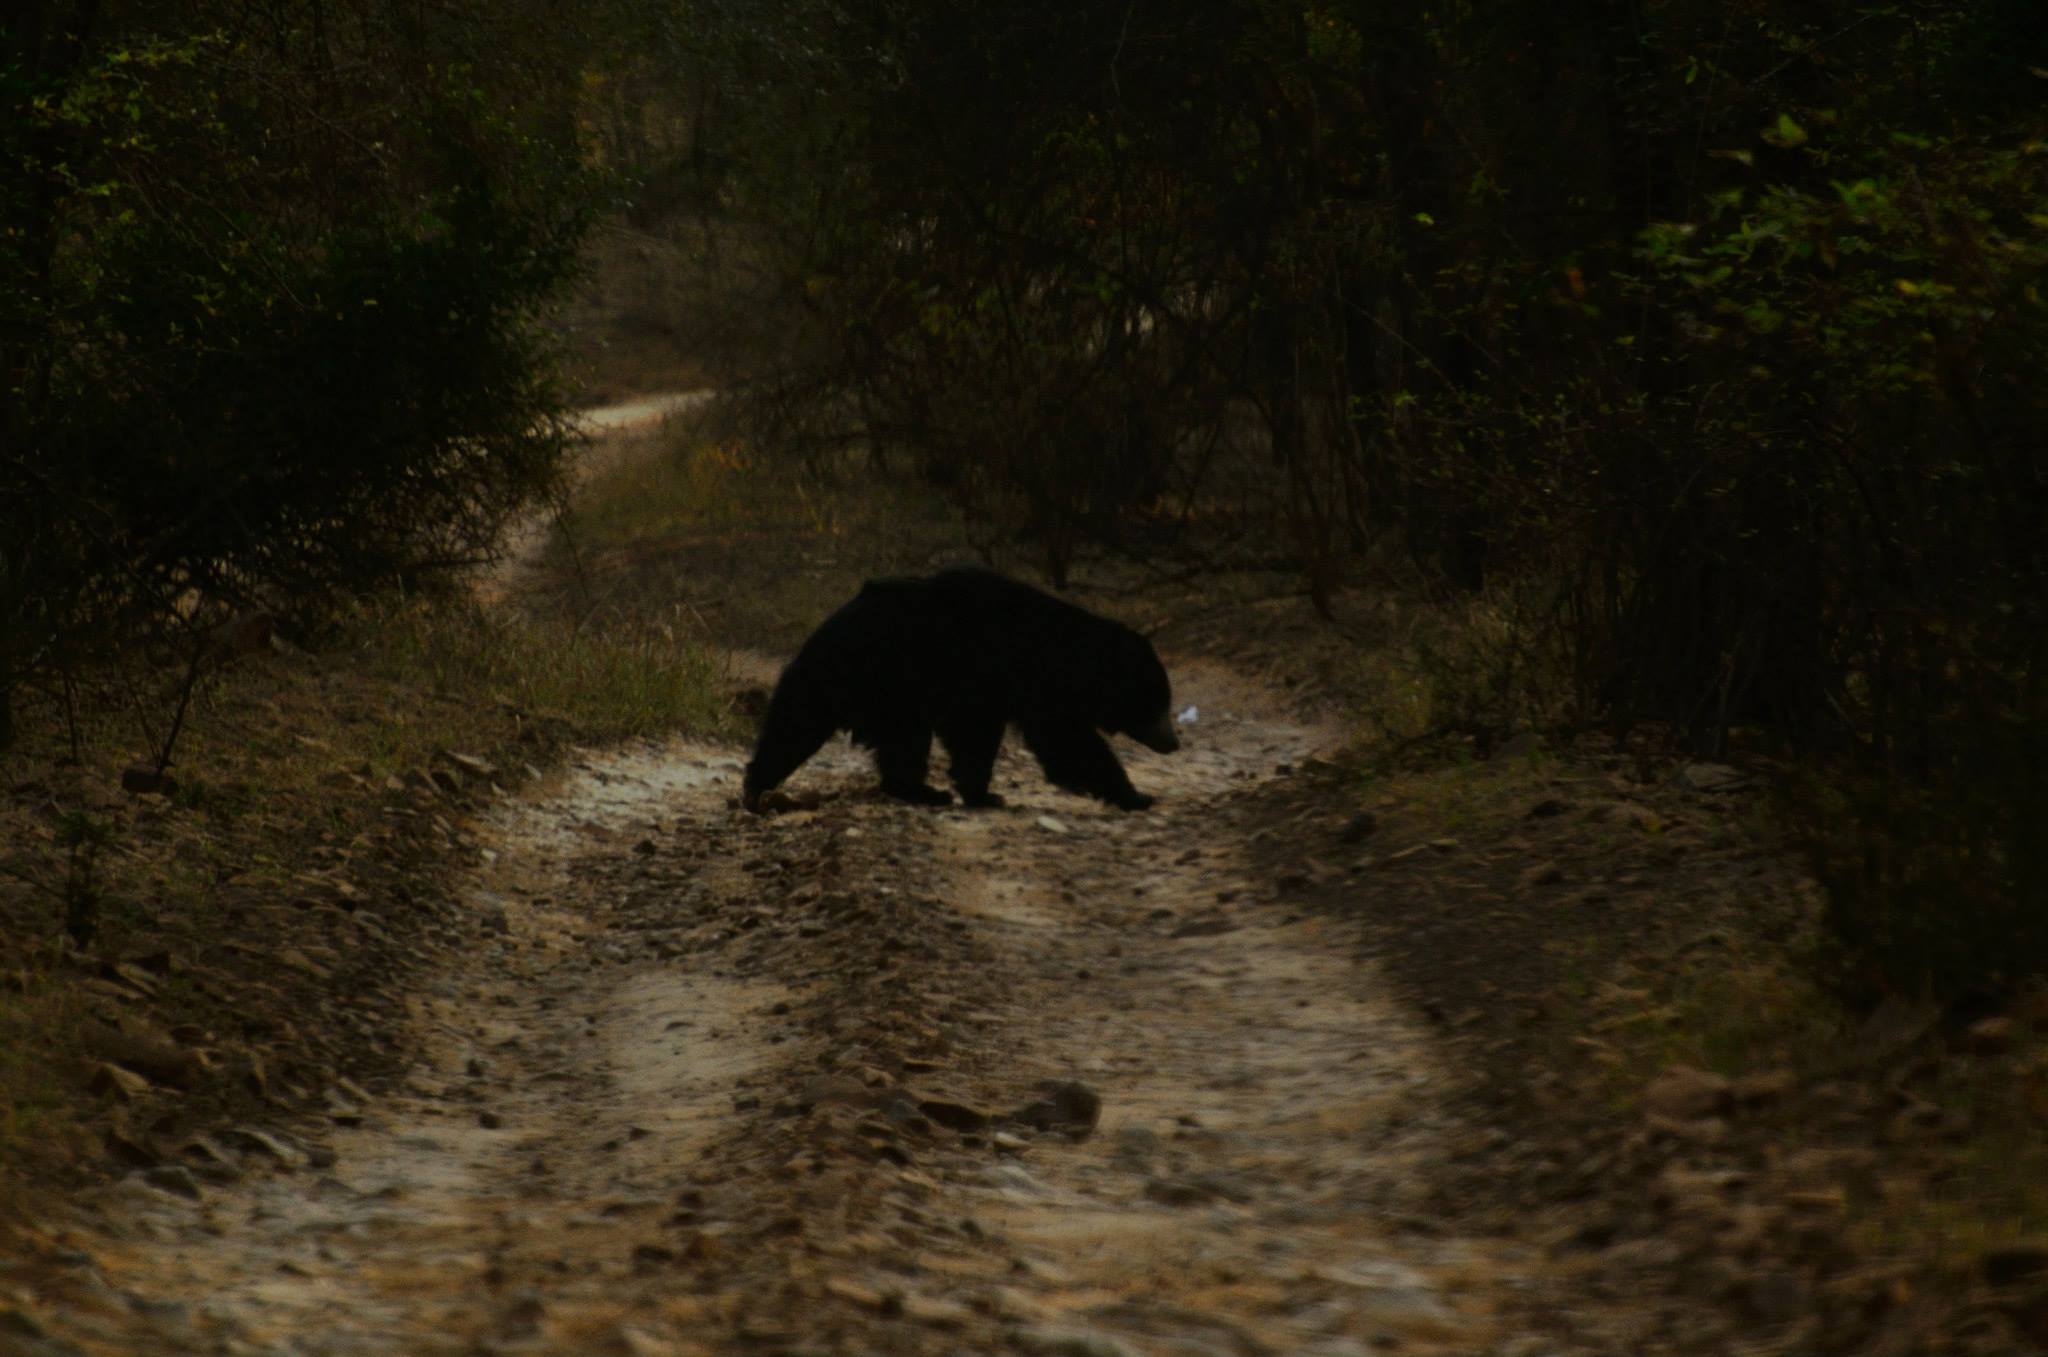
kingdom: Animalia
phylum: Chordata
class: Mammalia
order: Carnivora
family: Ursidae
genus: Melursus
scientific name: Melursus ursinus
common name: Sloth bear
